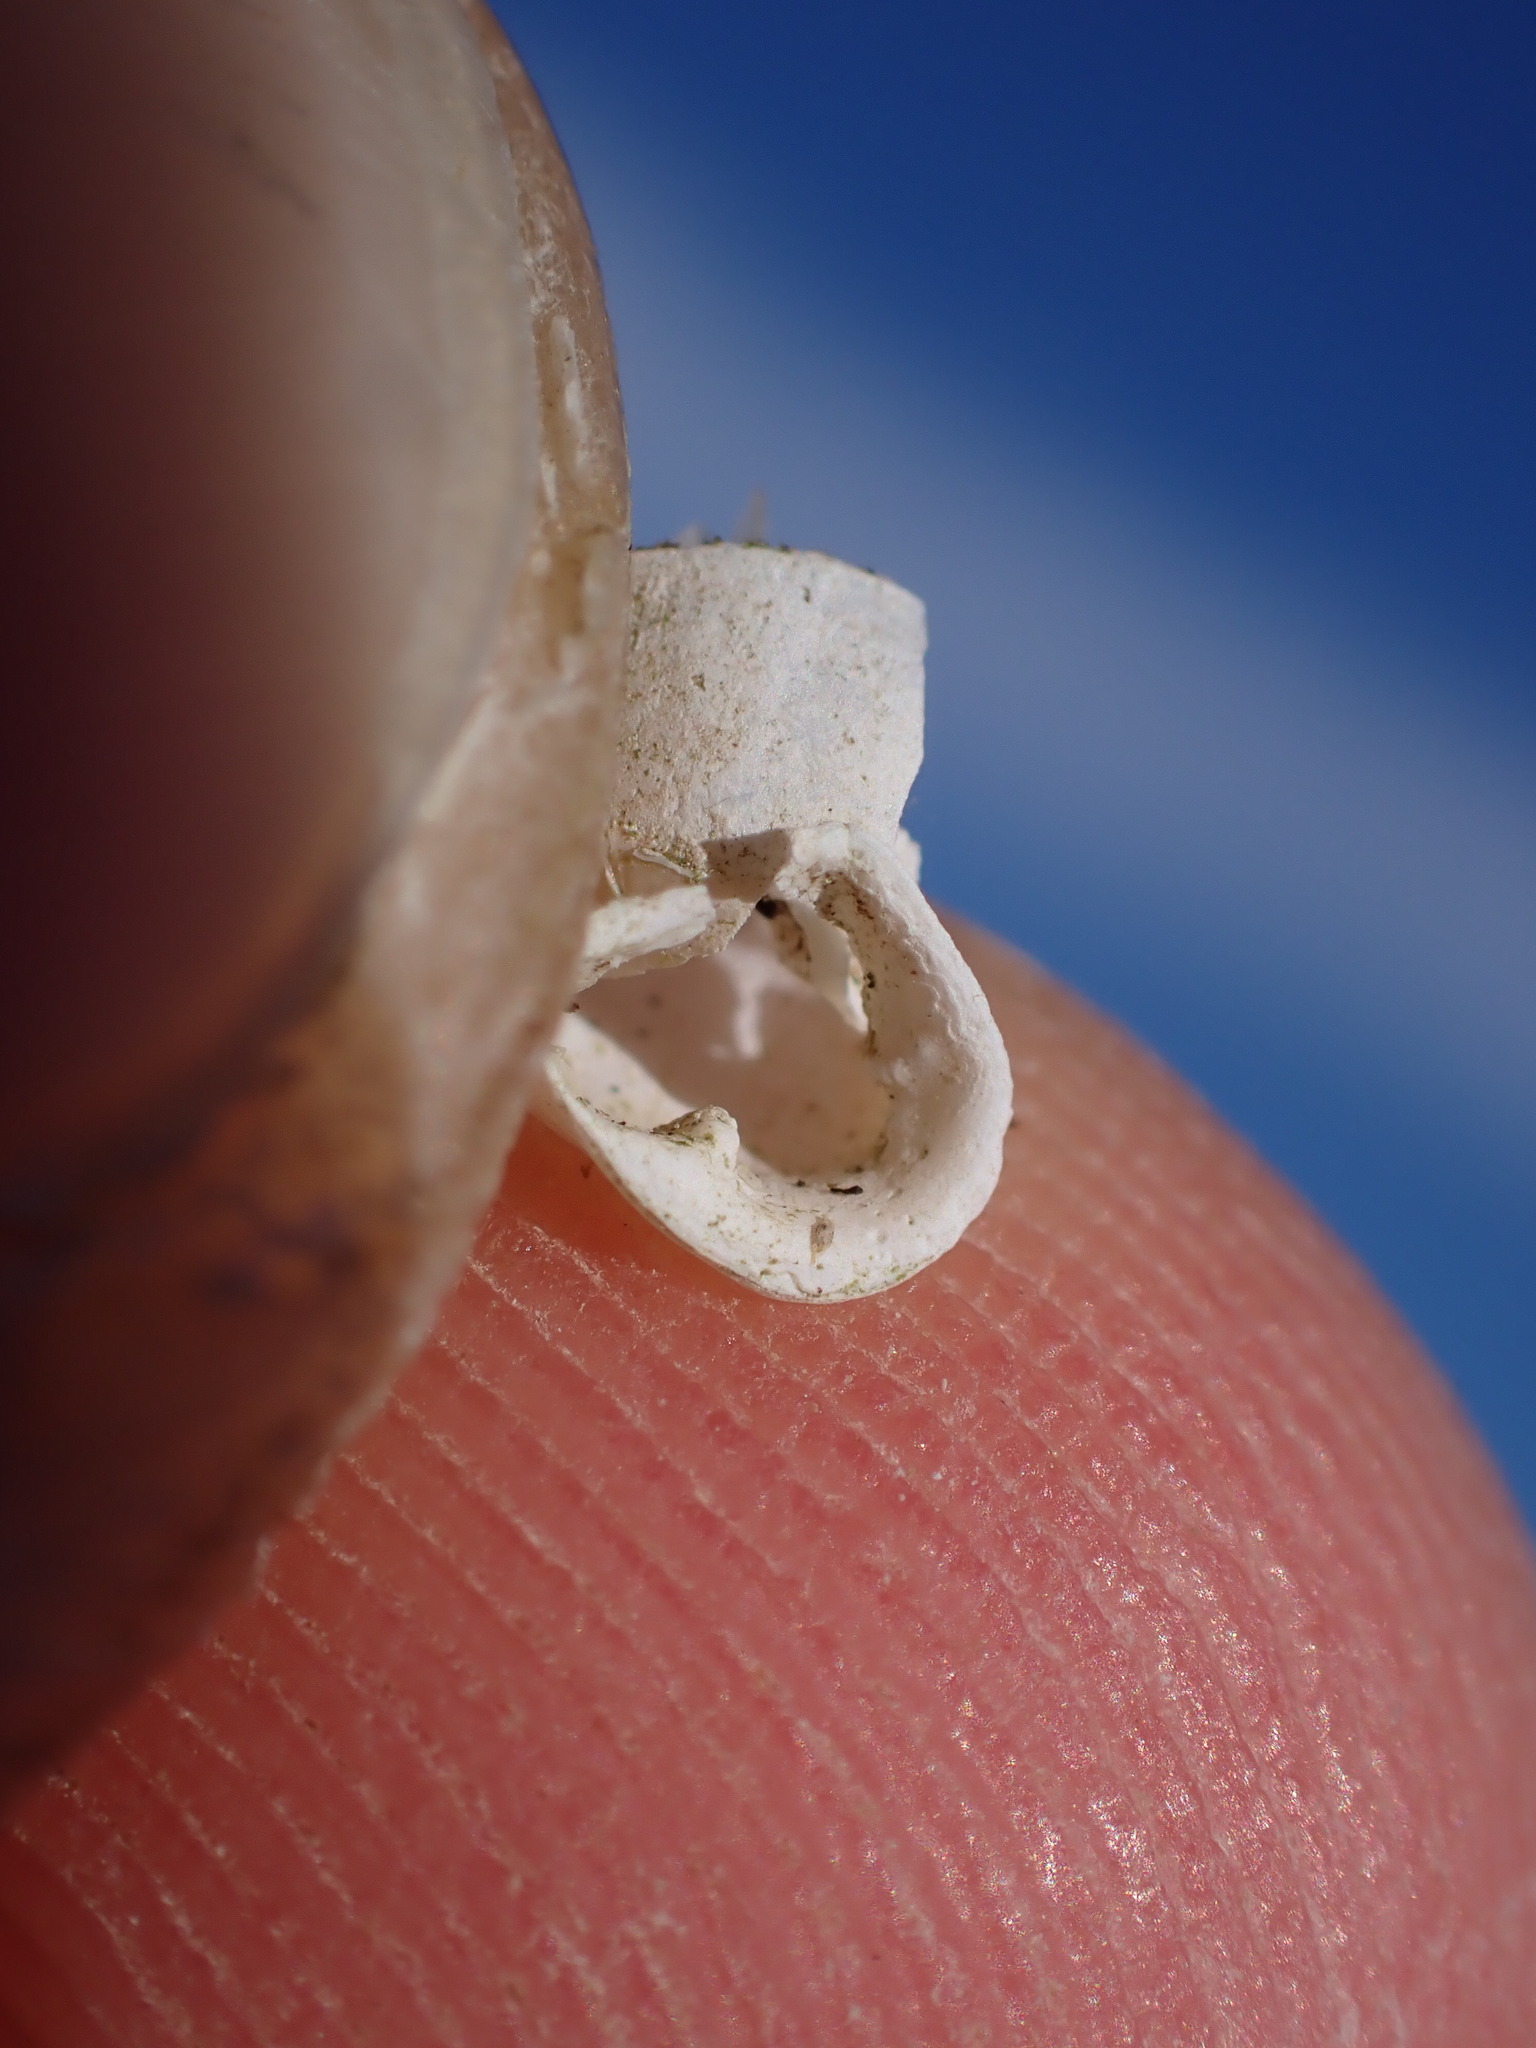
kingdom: Animalia
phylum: Mollusca
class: Gastropoda
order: Stylommatophora
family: Enidae
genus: Jaminia
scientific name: Jaminia quadridens
